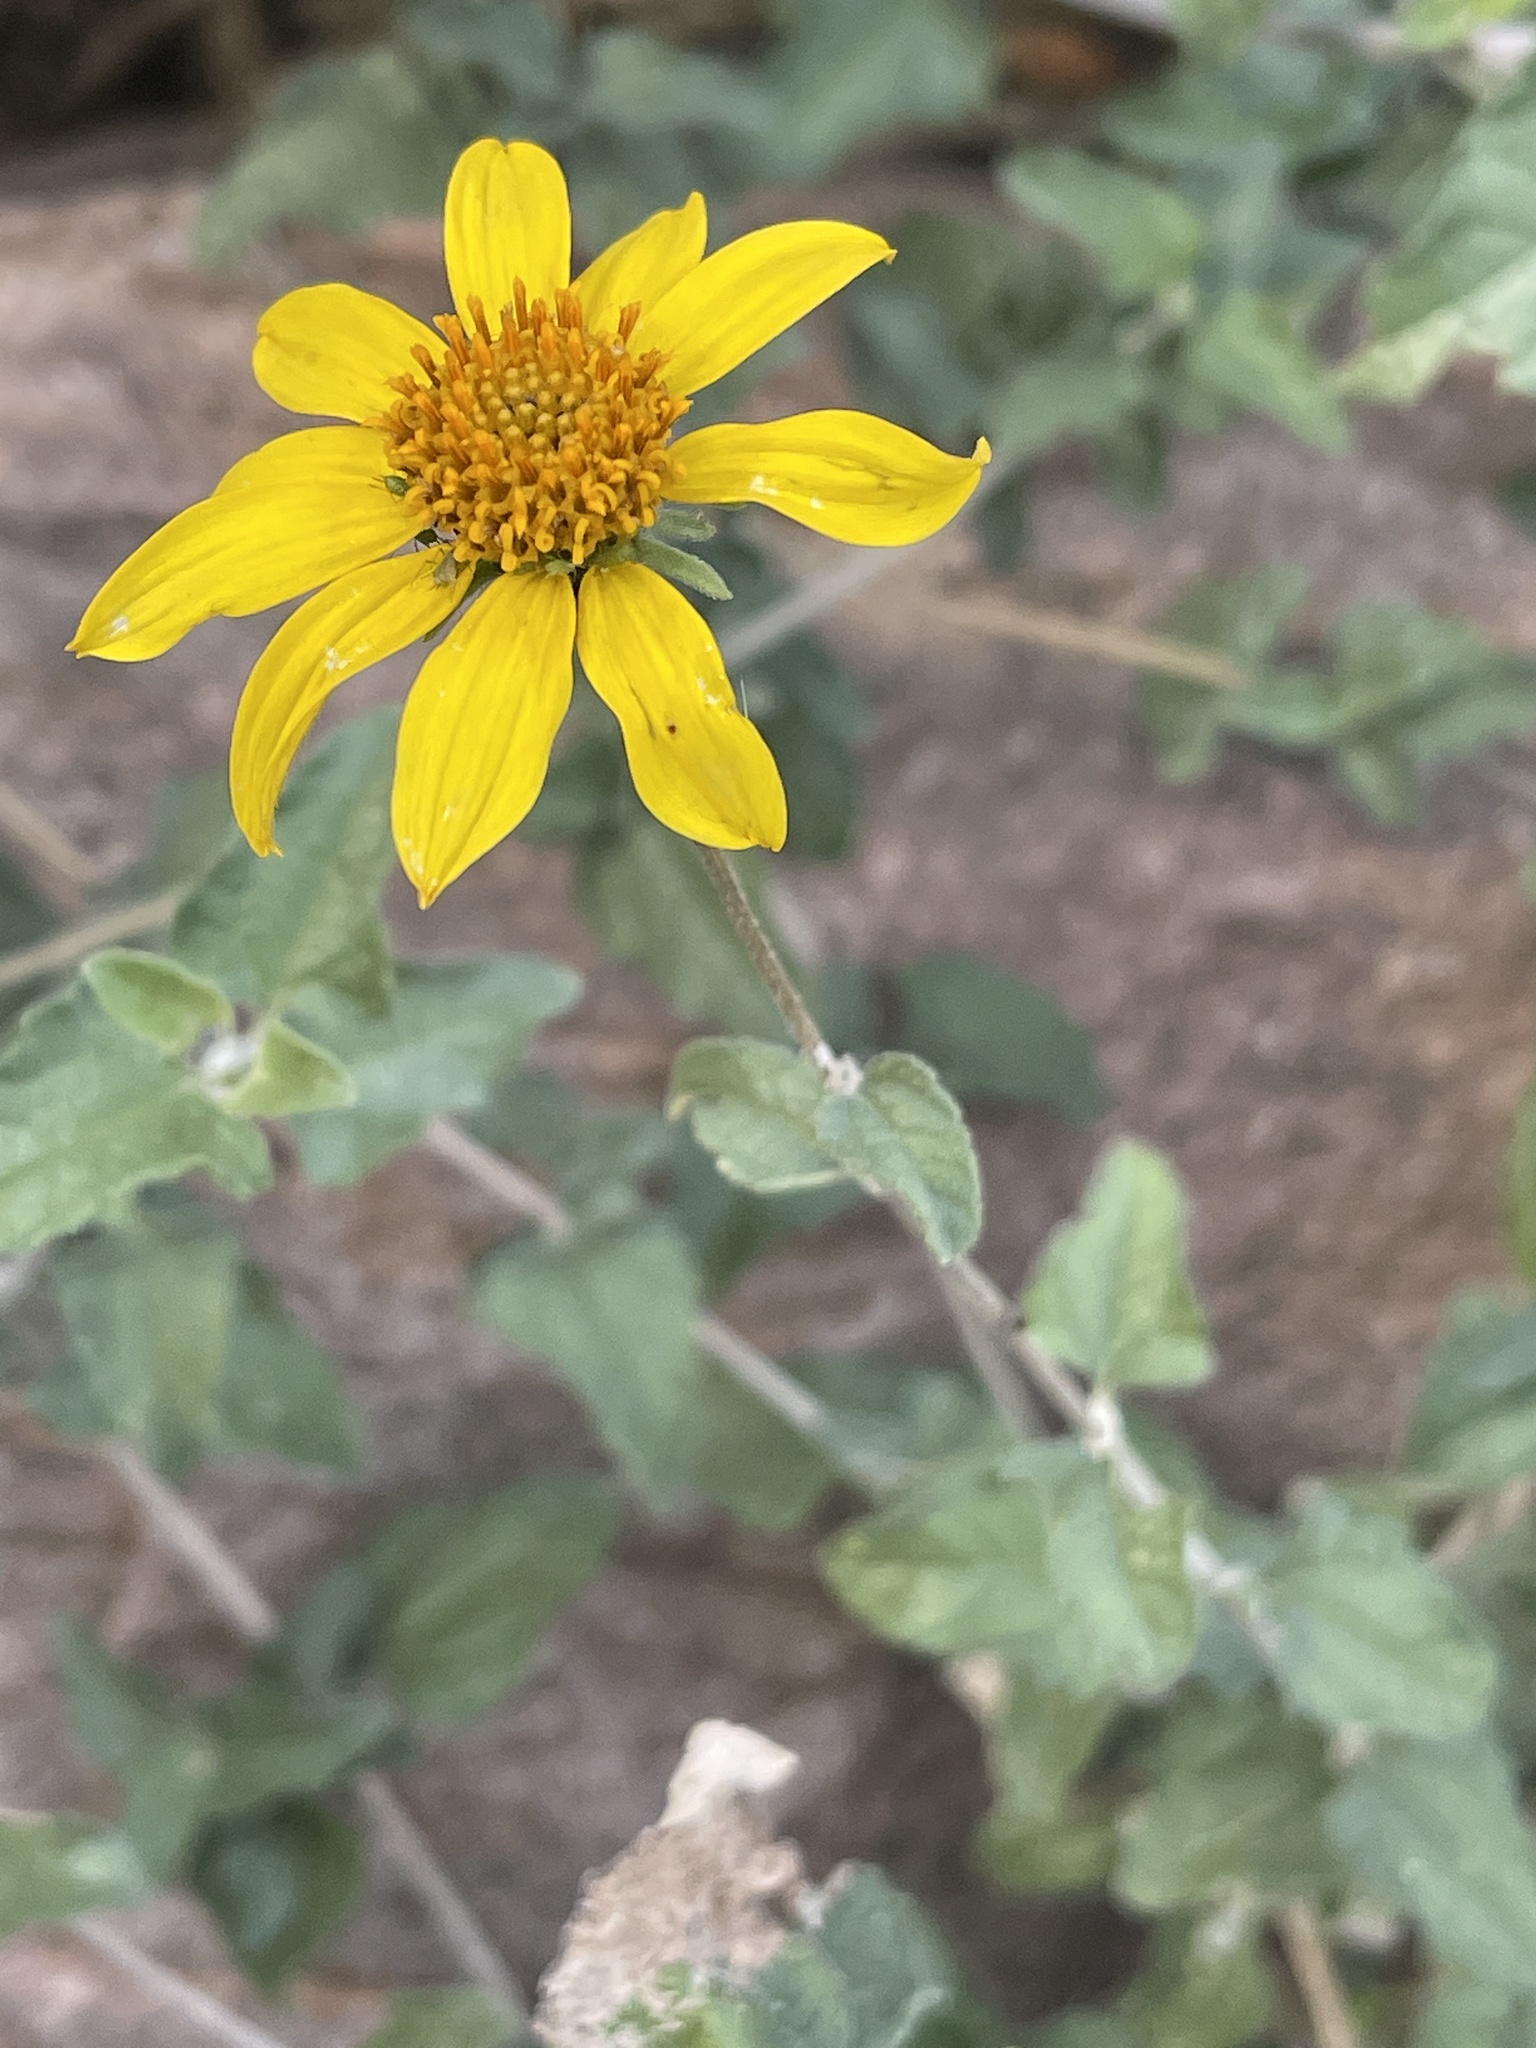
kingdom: Plantae
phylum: Tracheophyta
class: Magnoliopsida
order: Asterales
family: Asteraceae
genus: Bahiopsis
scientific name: Bahiopsis parishii
